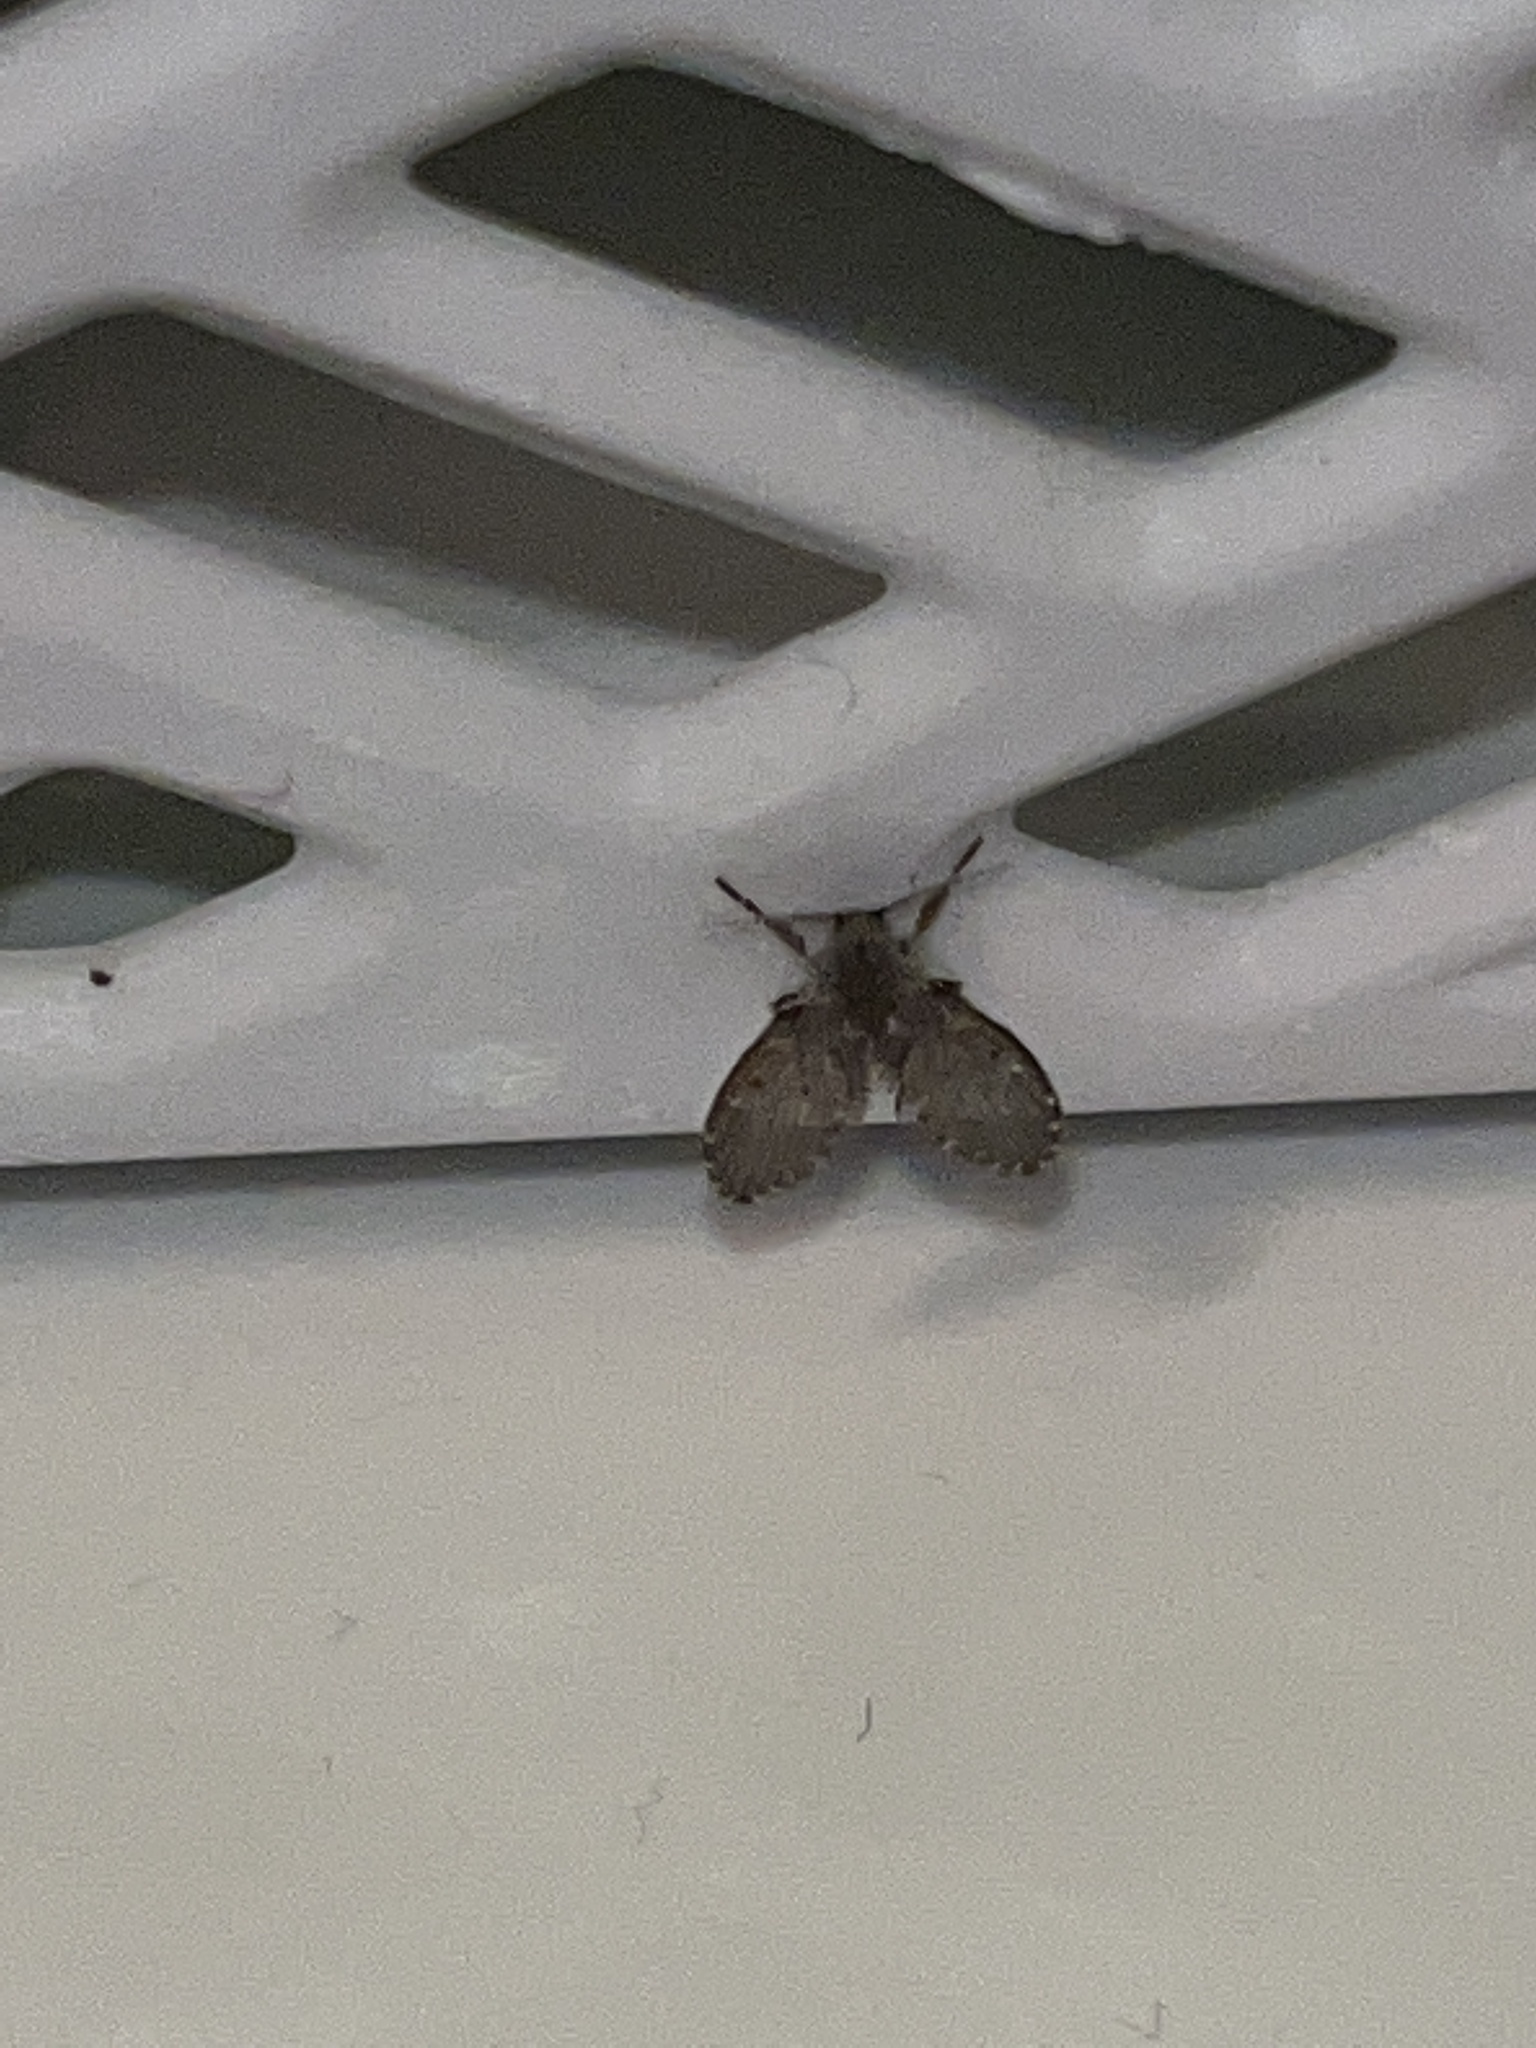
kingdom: Animalia
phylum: Arthropoda
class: Insecta
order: Diptera
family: Psychodidae
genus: Clogmia
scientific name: Clogmia albipunctatus
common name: White-spotted moth fly
